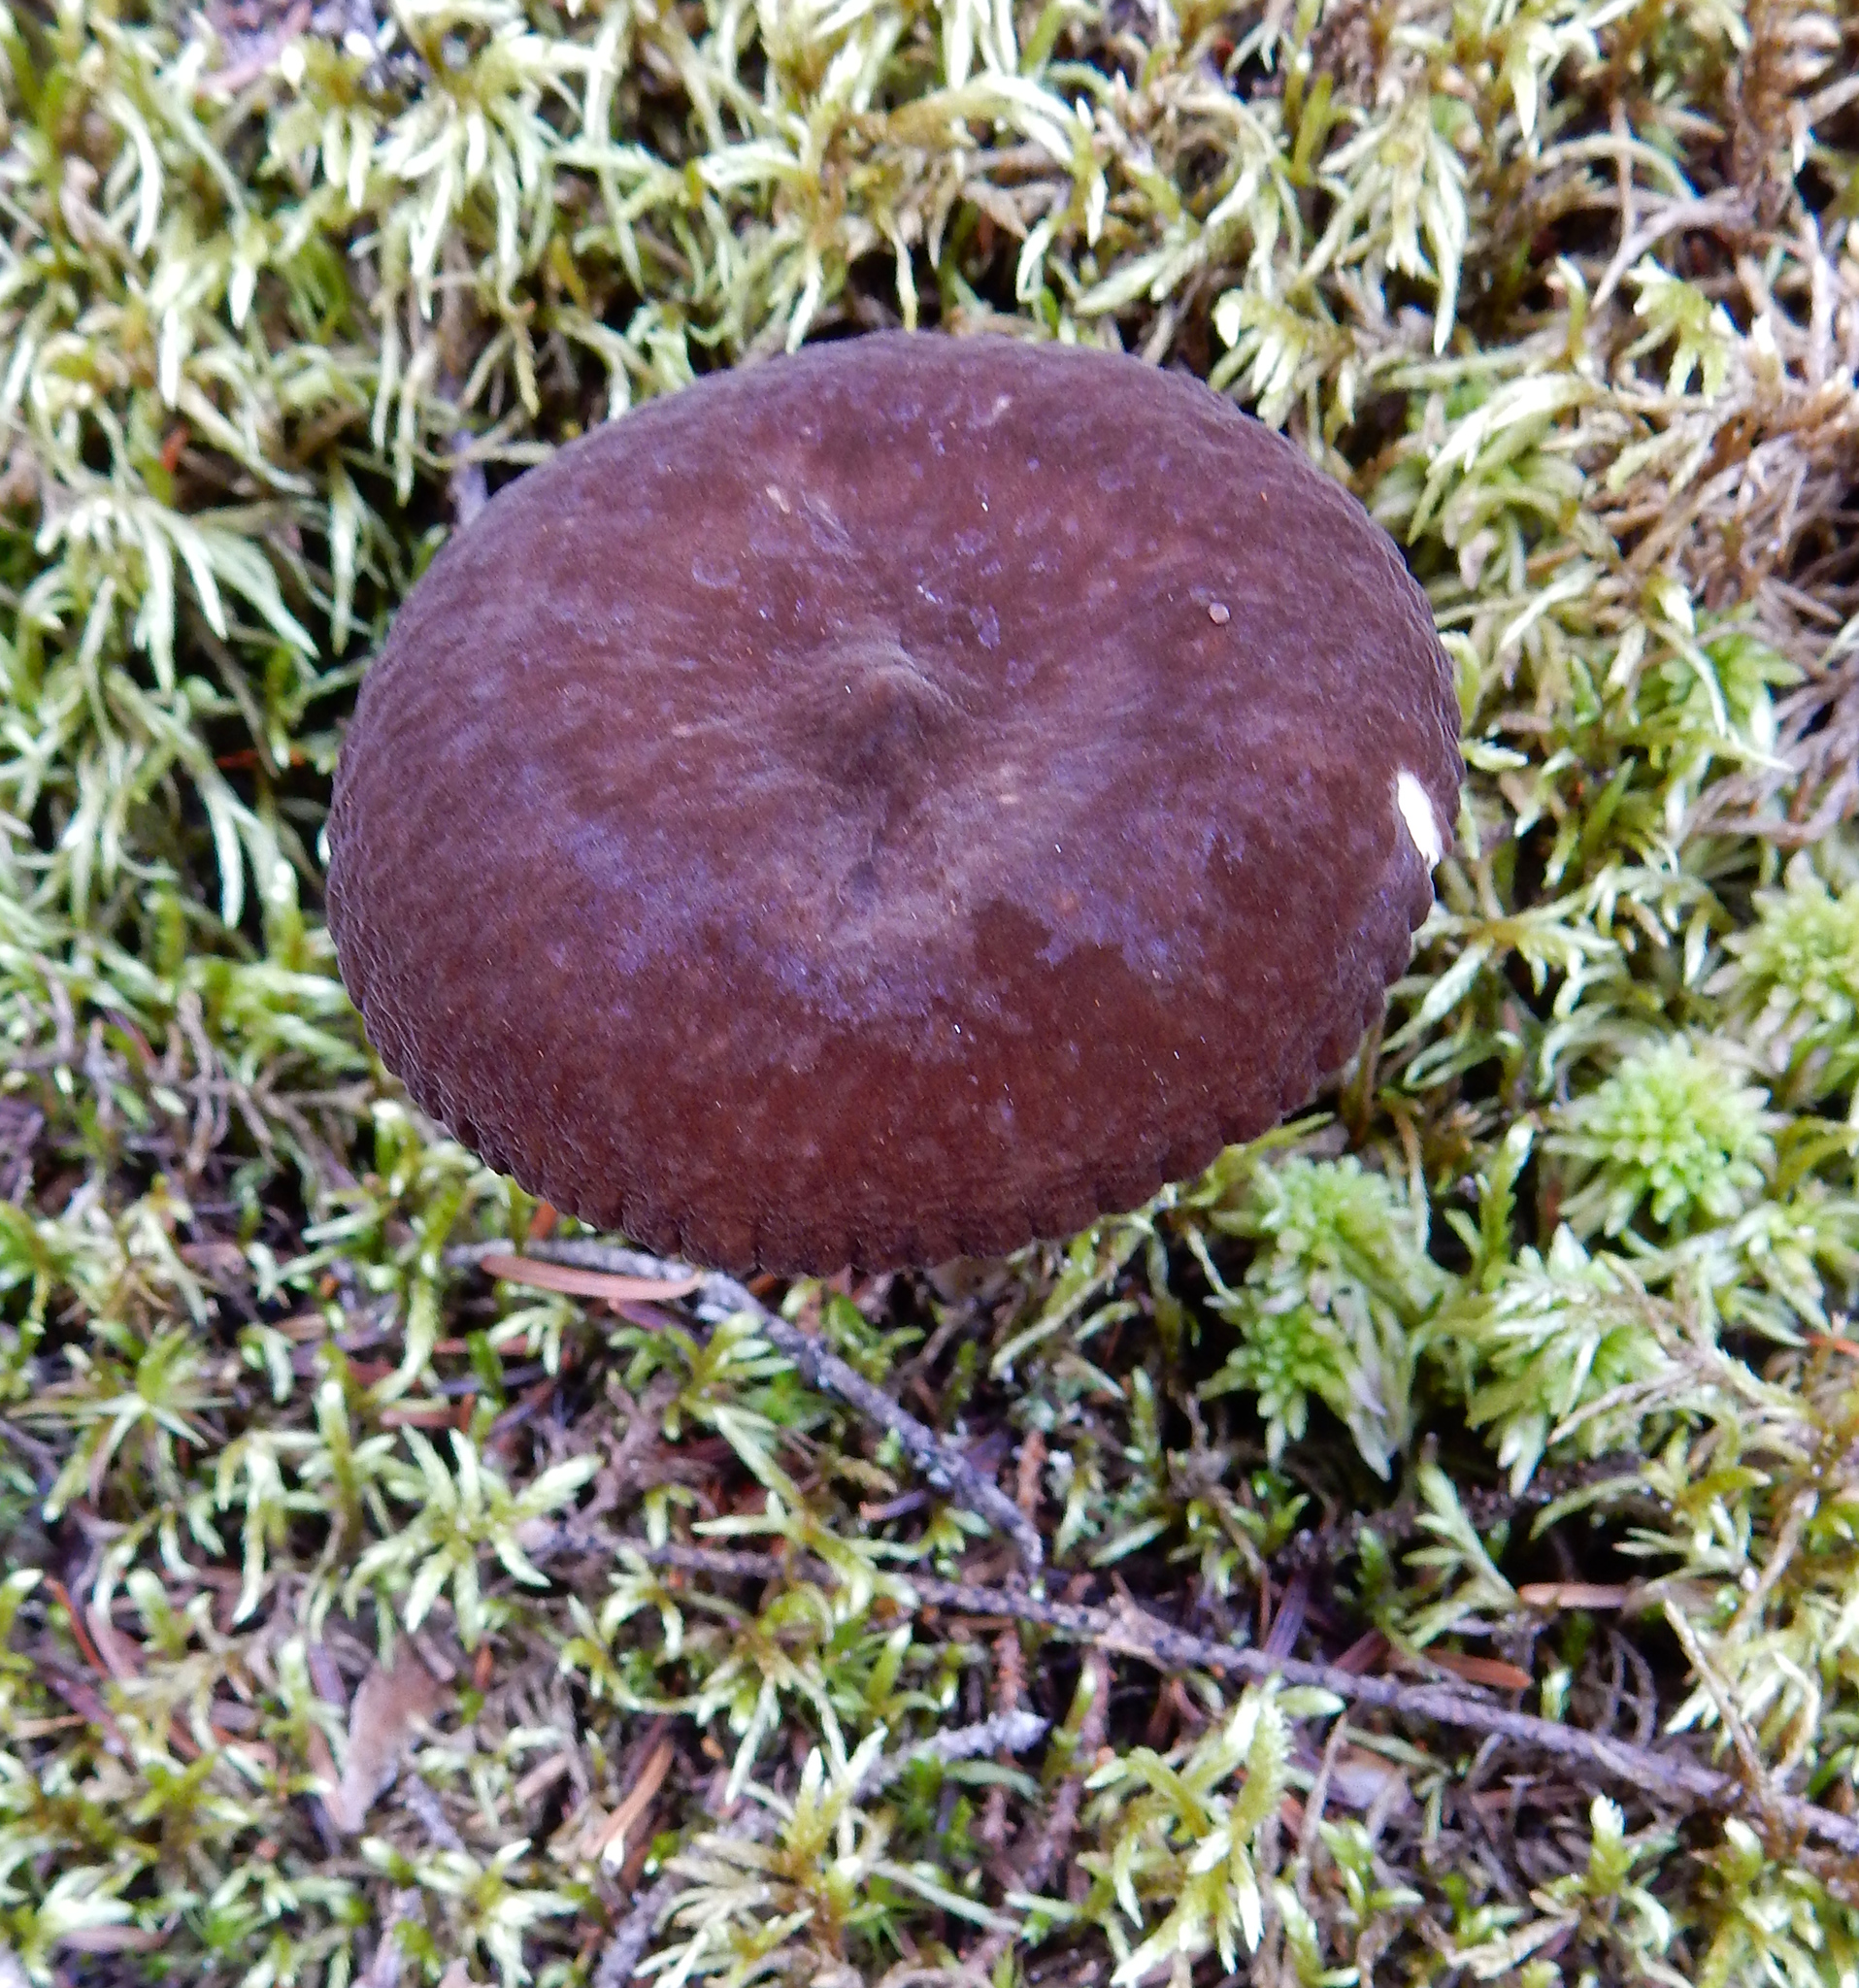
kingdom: Fungi
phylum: Basidiomycota
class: Agaricomycetes
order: Russulales
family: Russulaceae
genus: Lactarius
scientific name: Lactarius lignyotus
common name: Velvet milkcap
